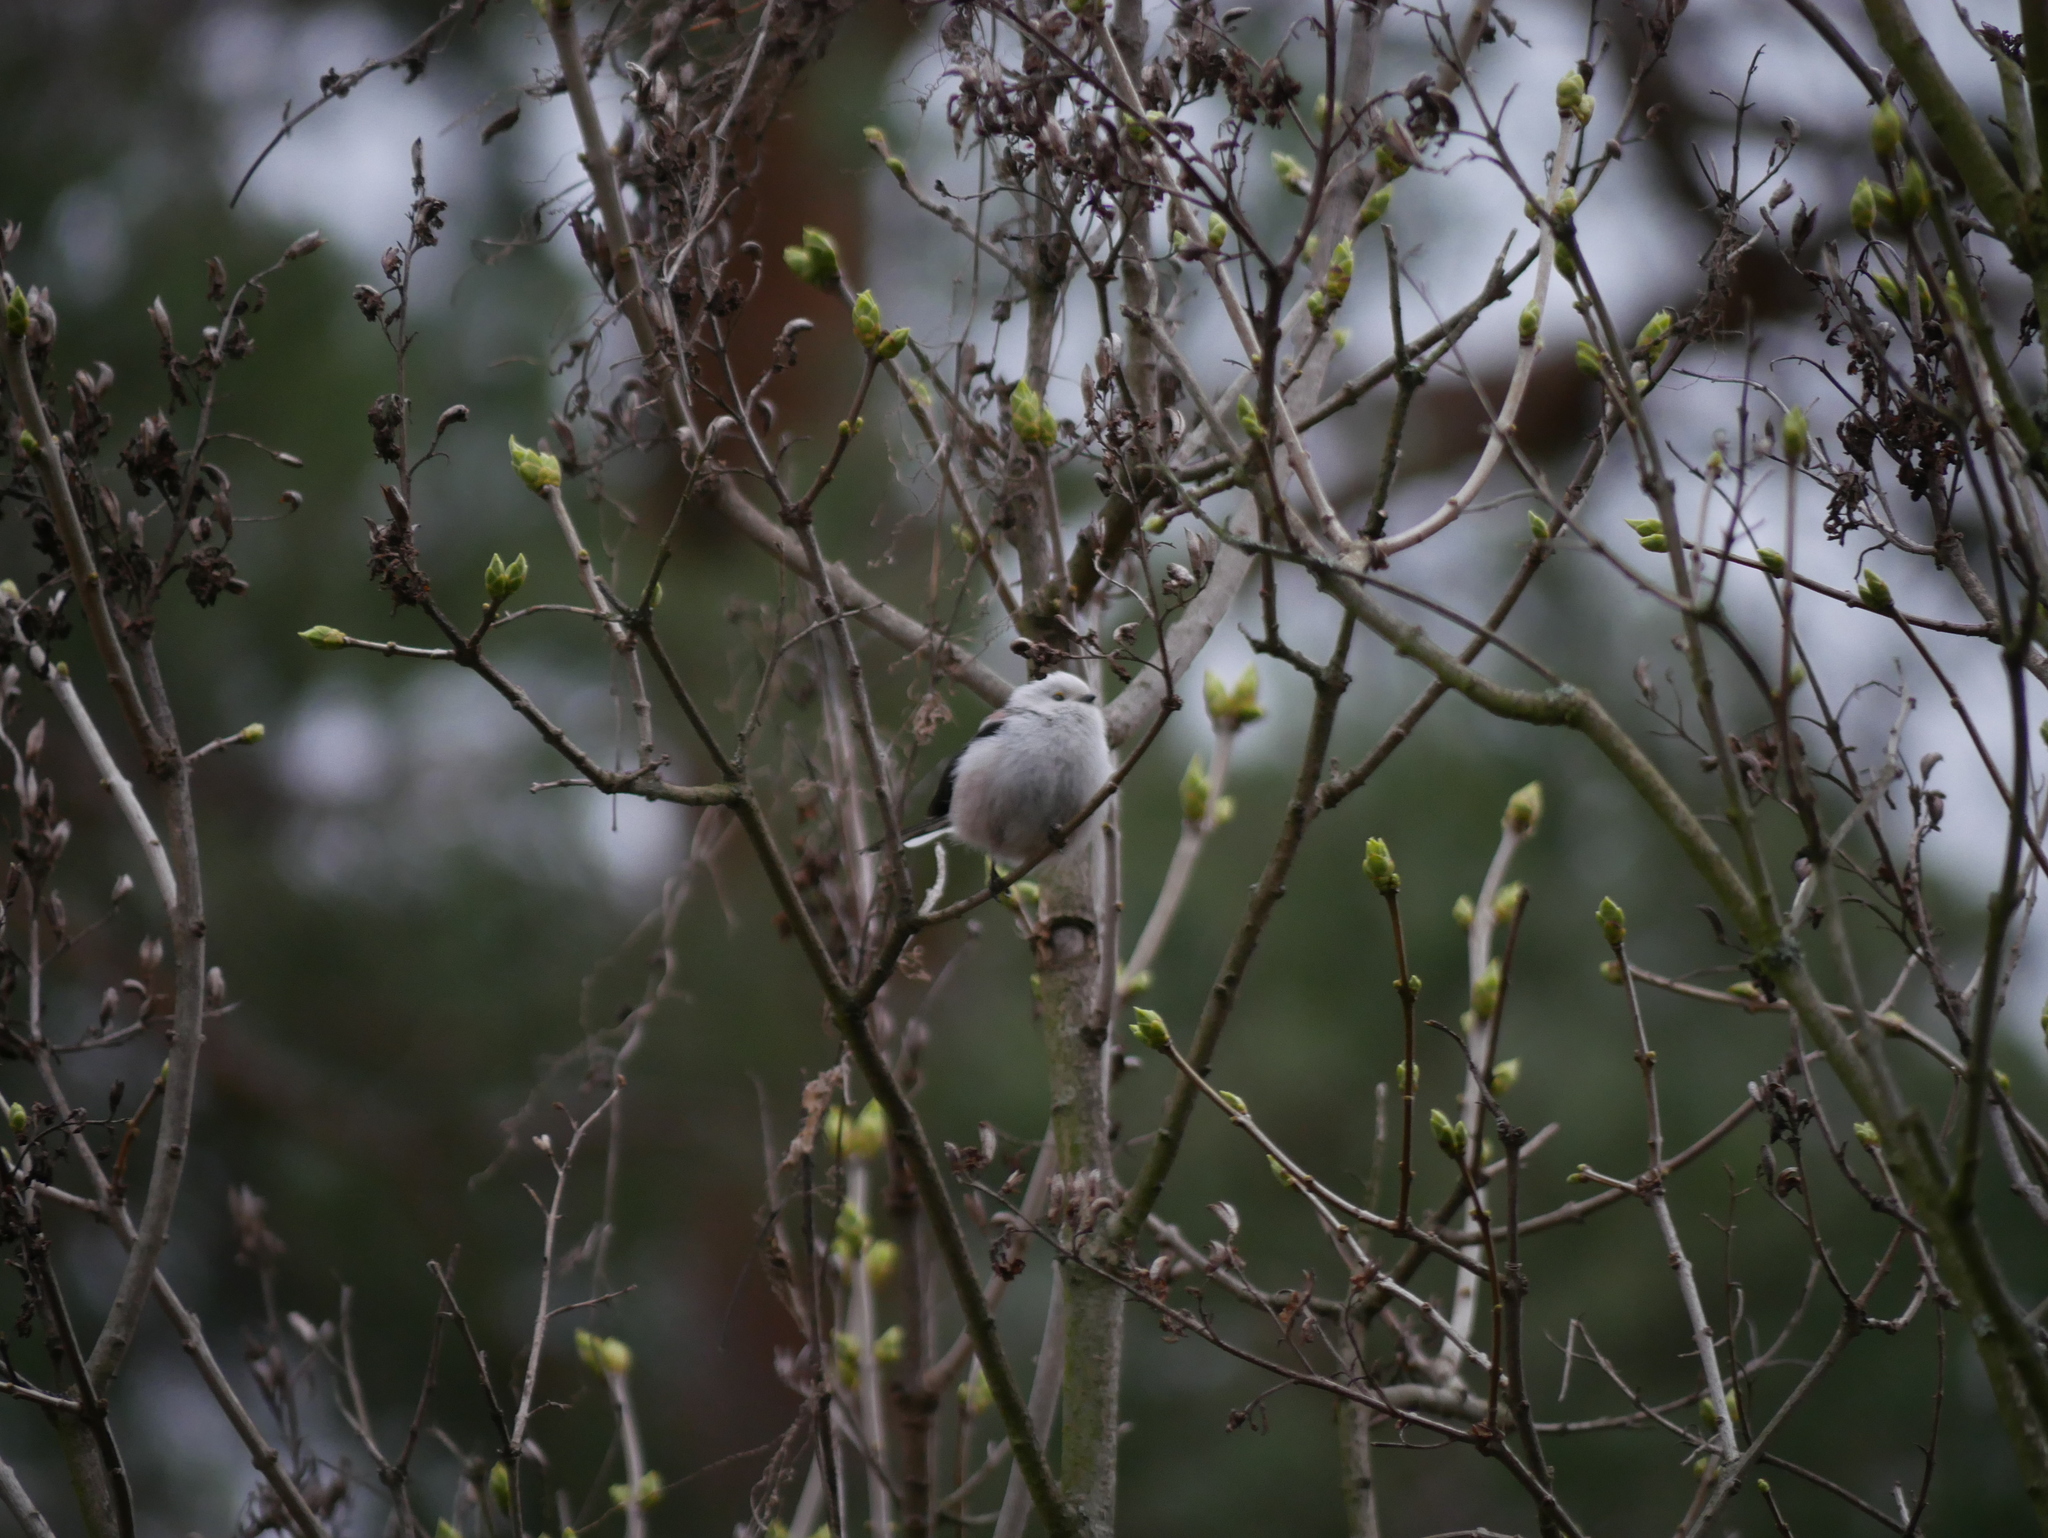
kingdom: Animalia
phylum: Chordata
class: Aves
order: Passeriformes
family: Aegithalidae
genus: Aegithalos
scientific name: Aegithalos caudatus
